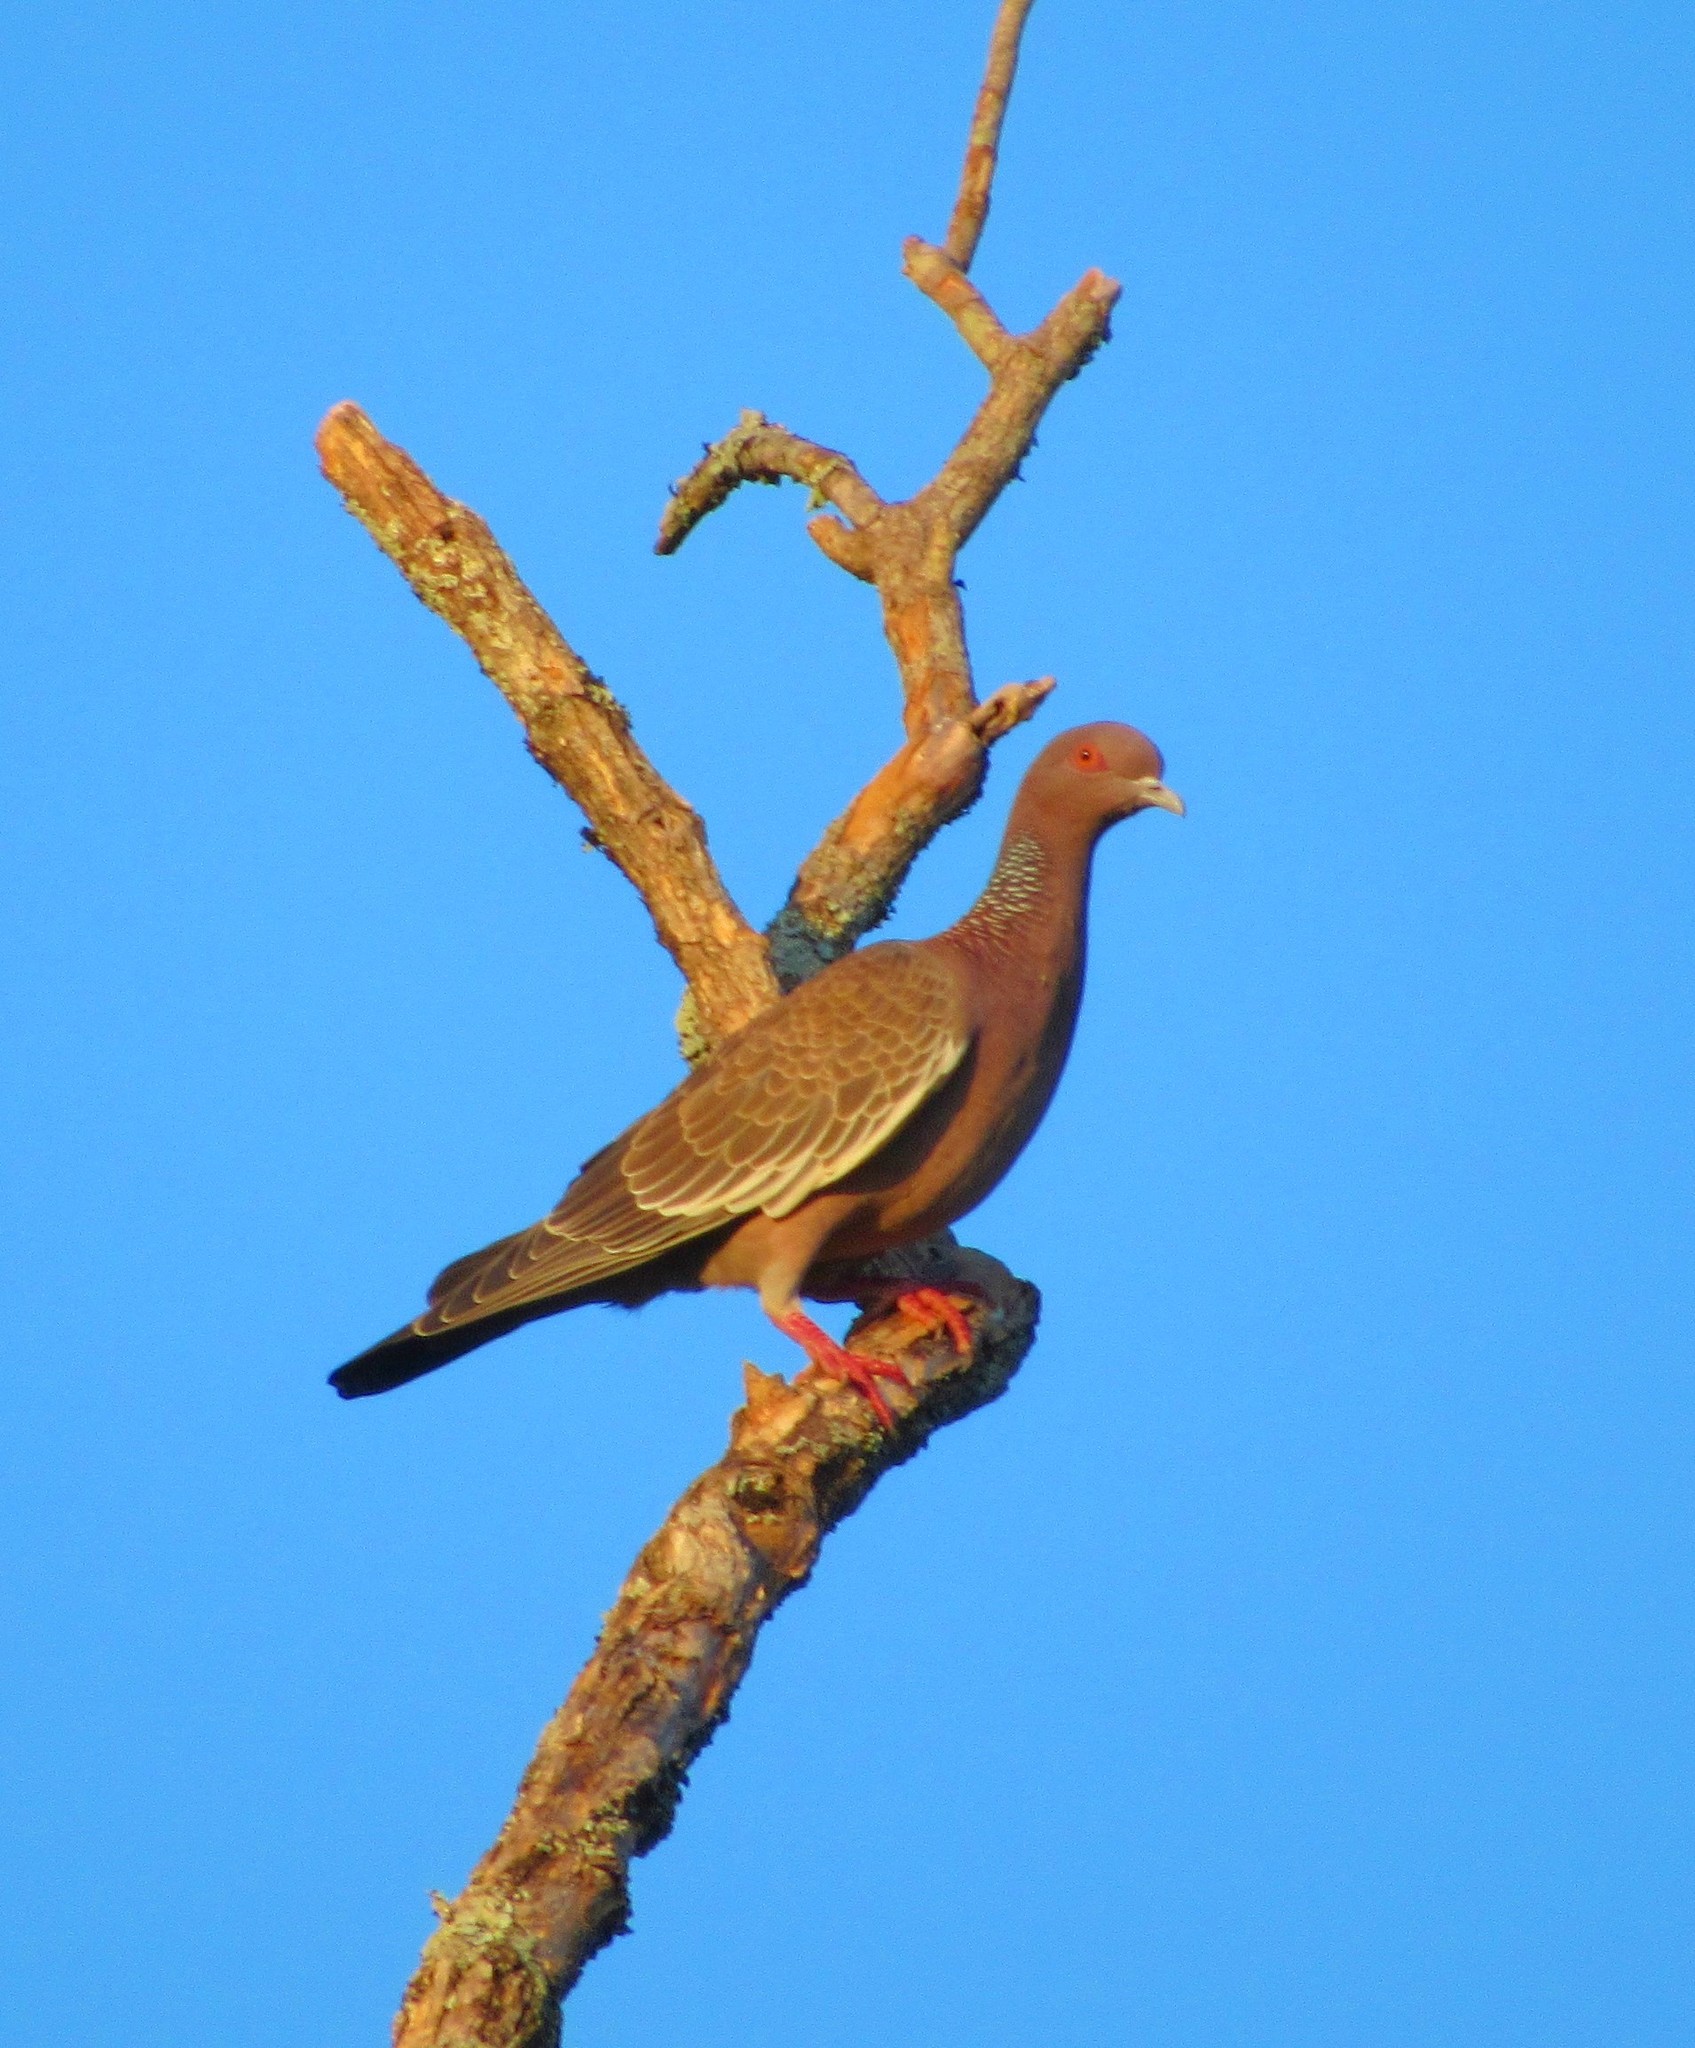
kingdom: Animalia
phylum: Chordata
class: Aves
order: Columbiformes
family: Columbidae
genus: Patagioenas
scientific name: Patagioenas picazuro
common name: Picazuro pigeon
